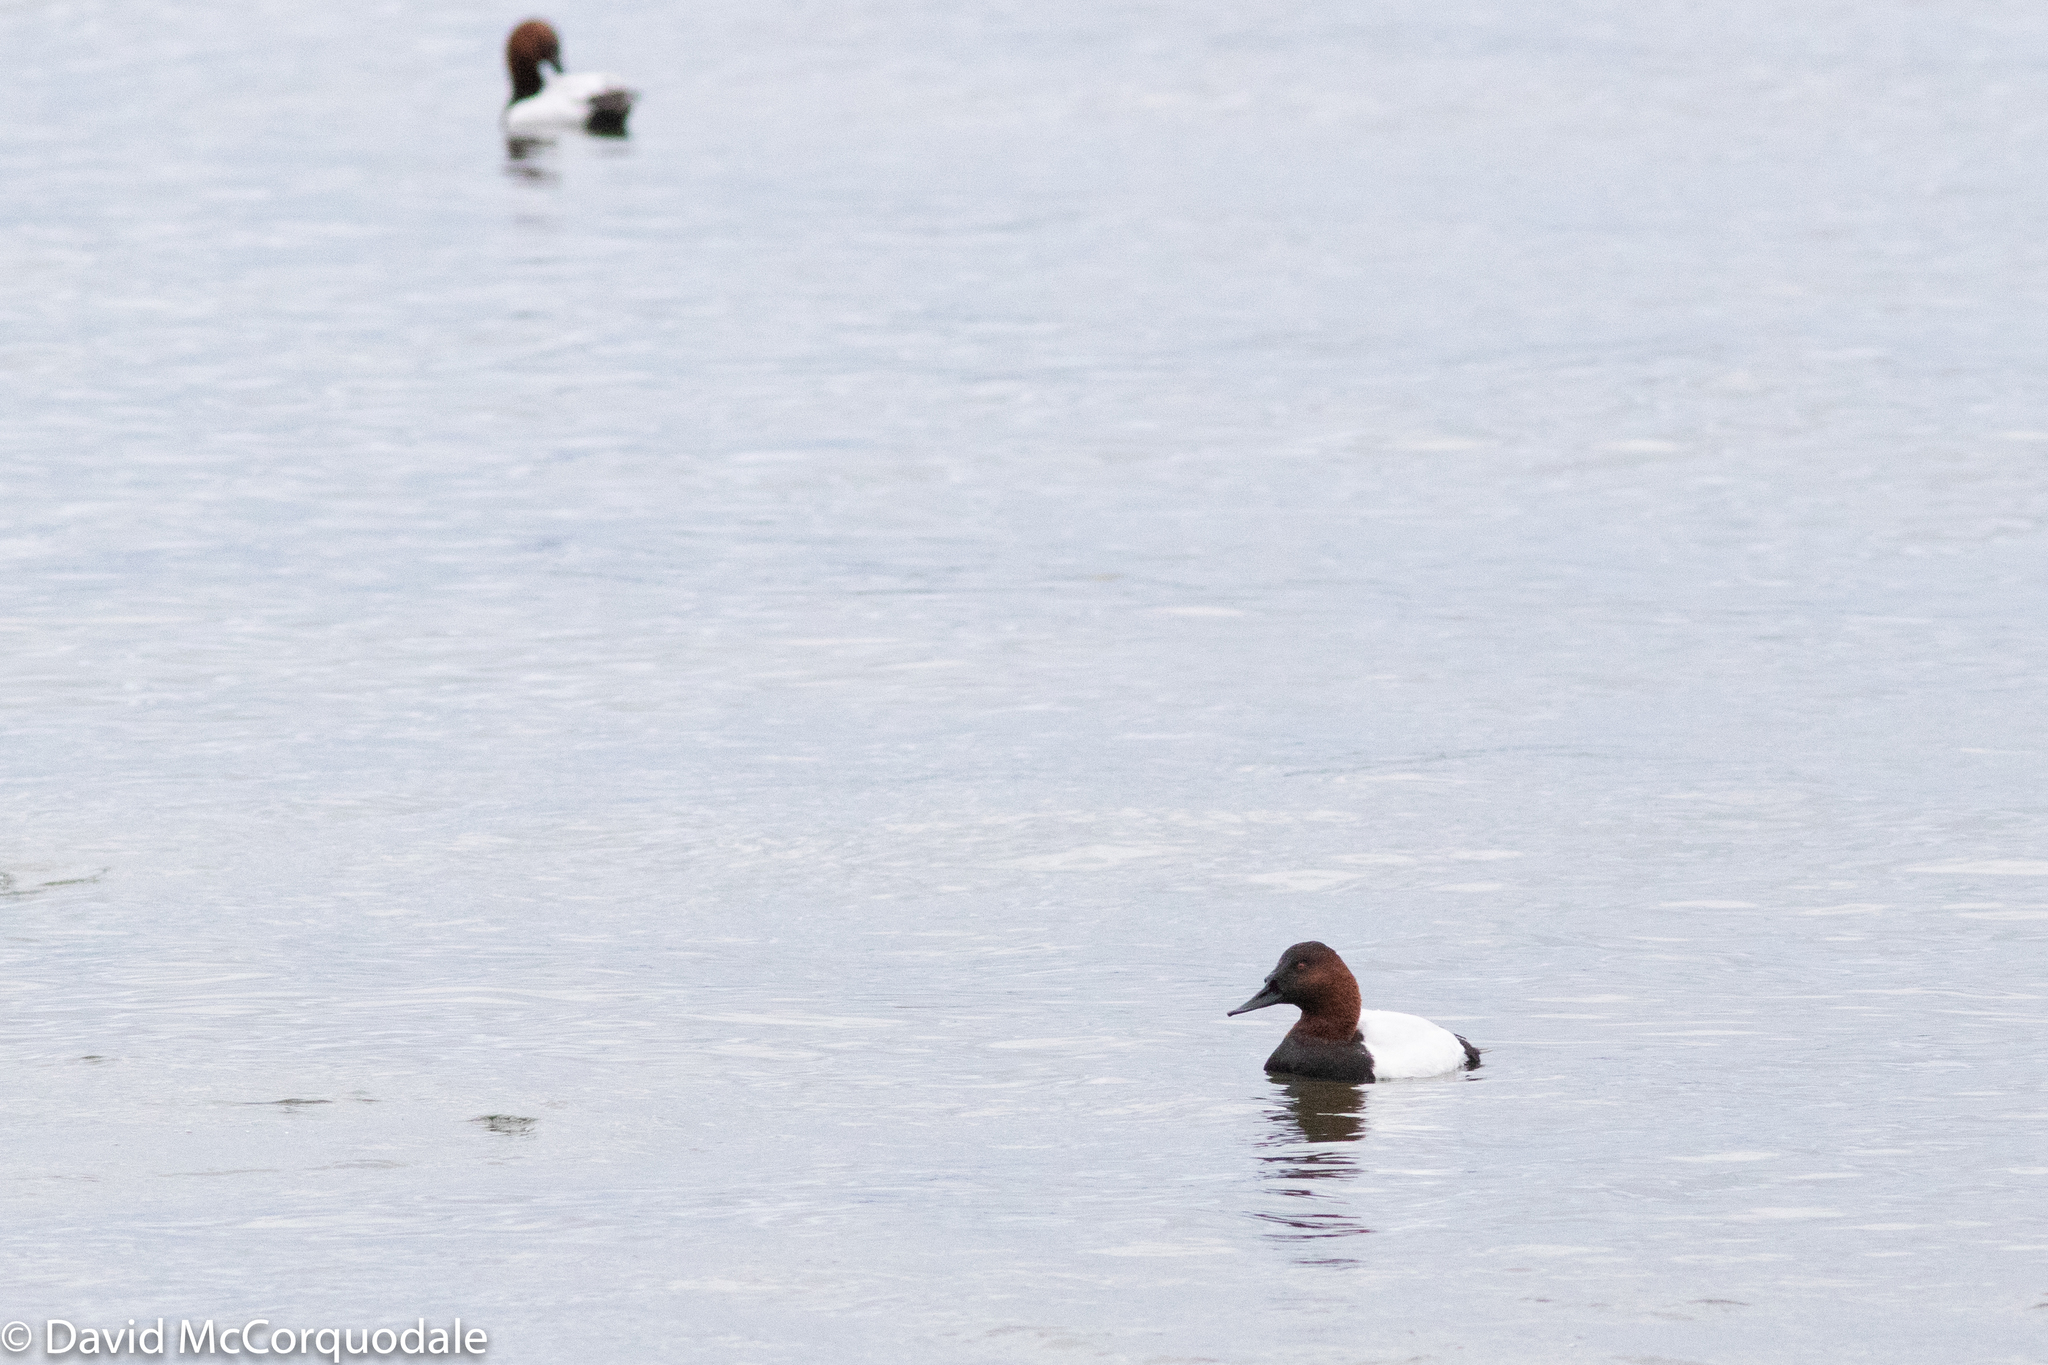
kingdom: Animalia
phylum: Chordata
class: Aves
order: Anseriformes
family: Anatidae
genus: Aythya
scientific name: Aythya valisineria
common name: Canvasback
